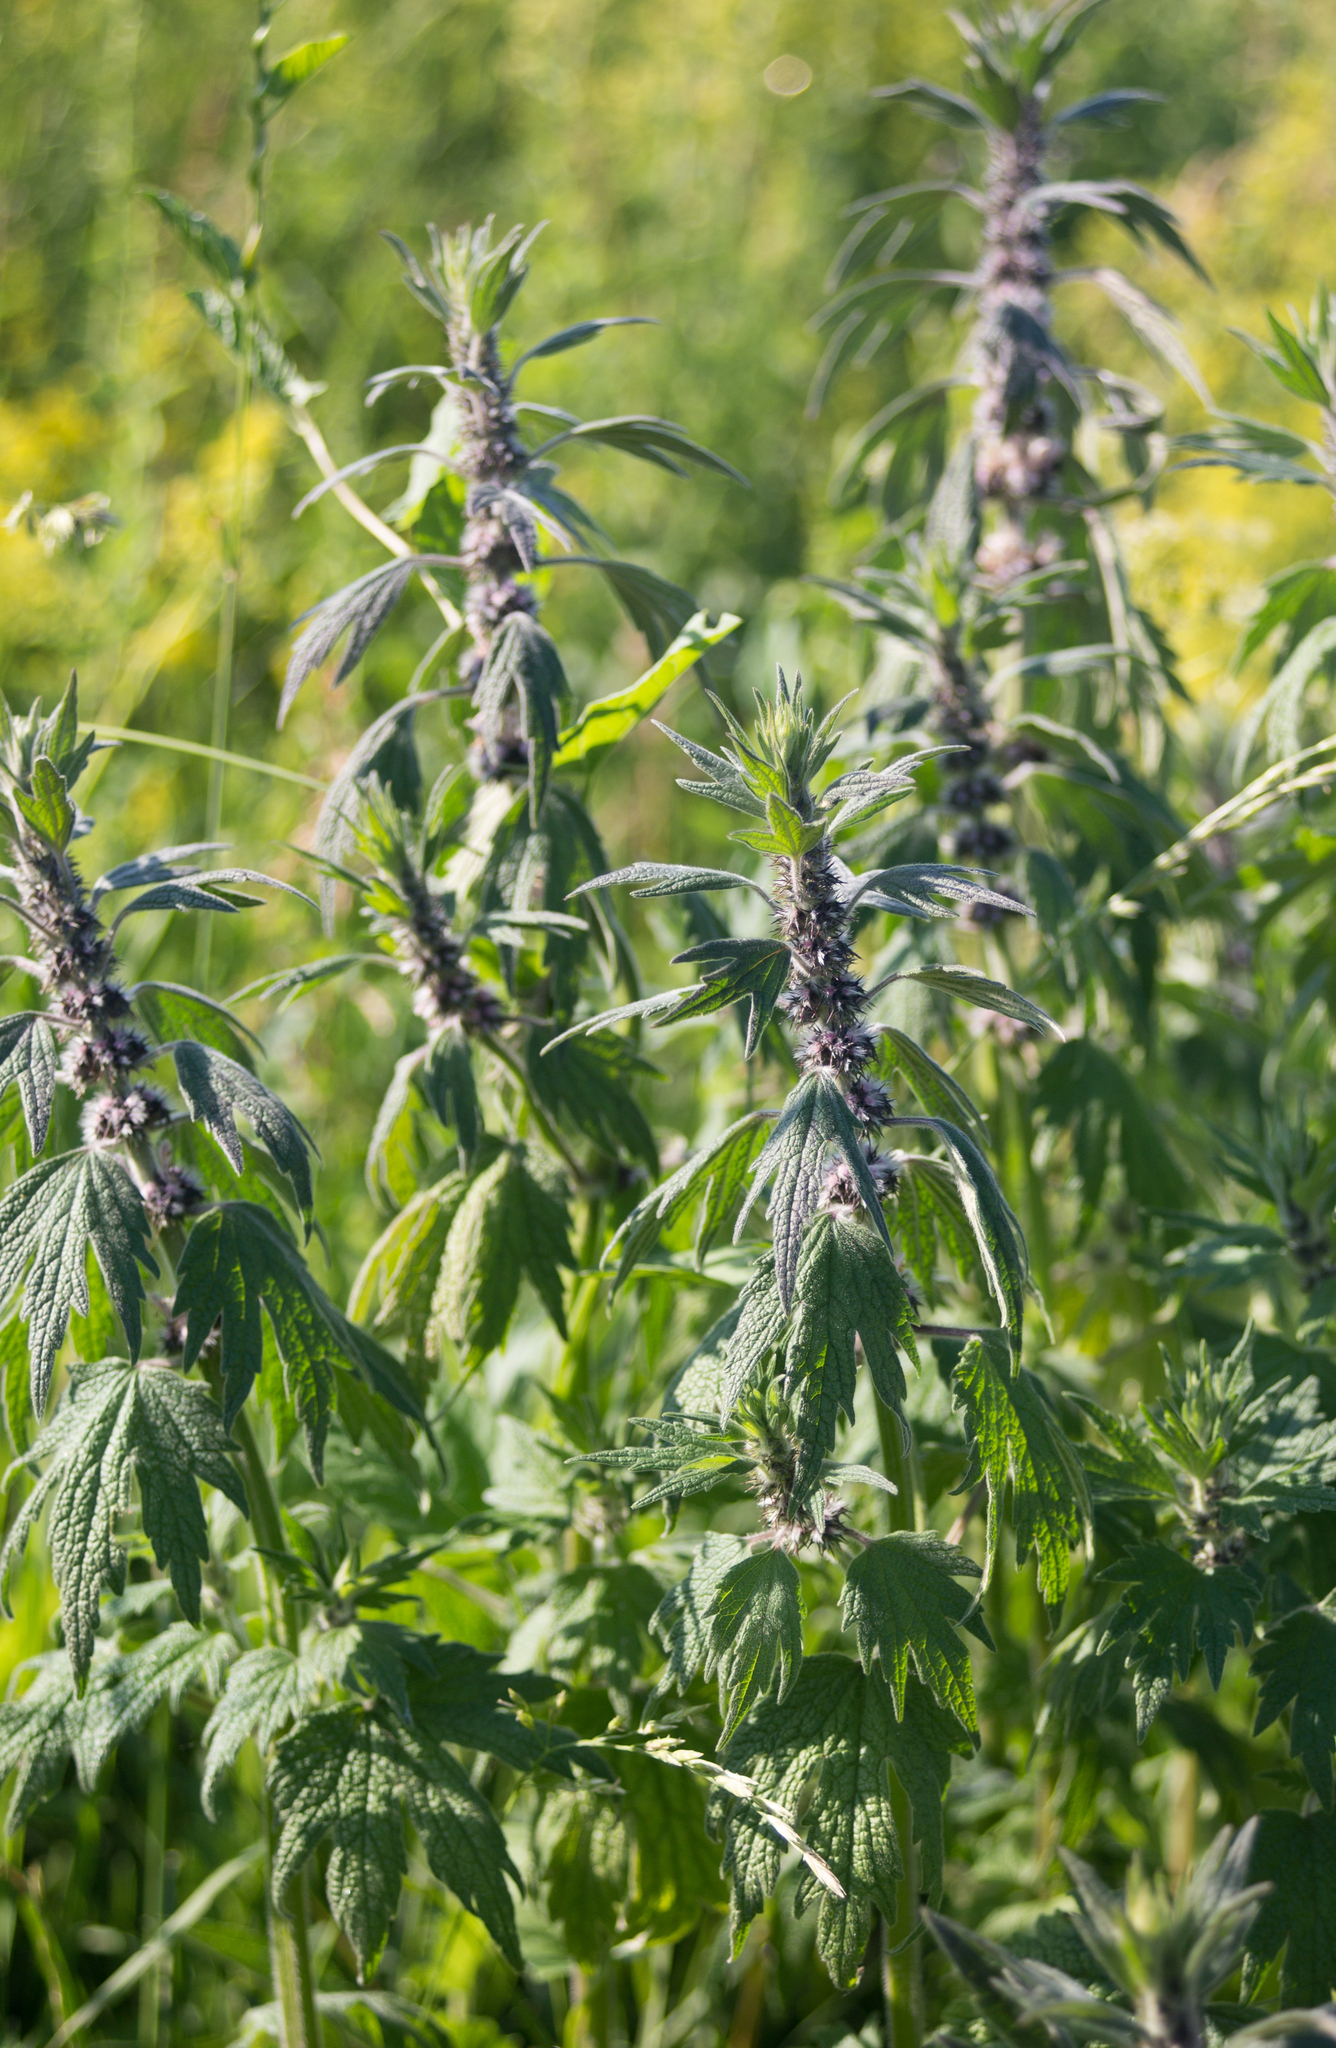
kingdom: Plantae
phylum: Tracheophyta
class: Magnoliopsida
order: Lamiales
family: Lamiaceae
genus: Leonurus
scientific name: Leonurus quinquelobatus
